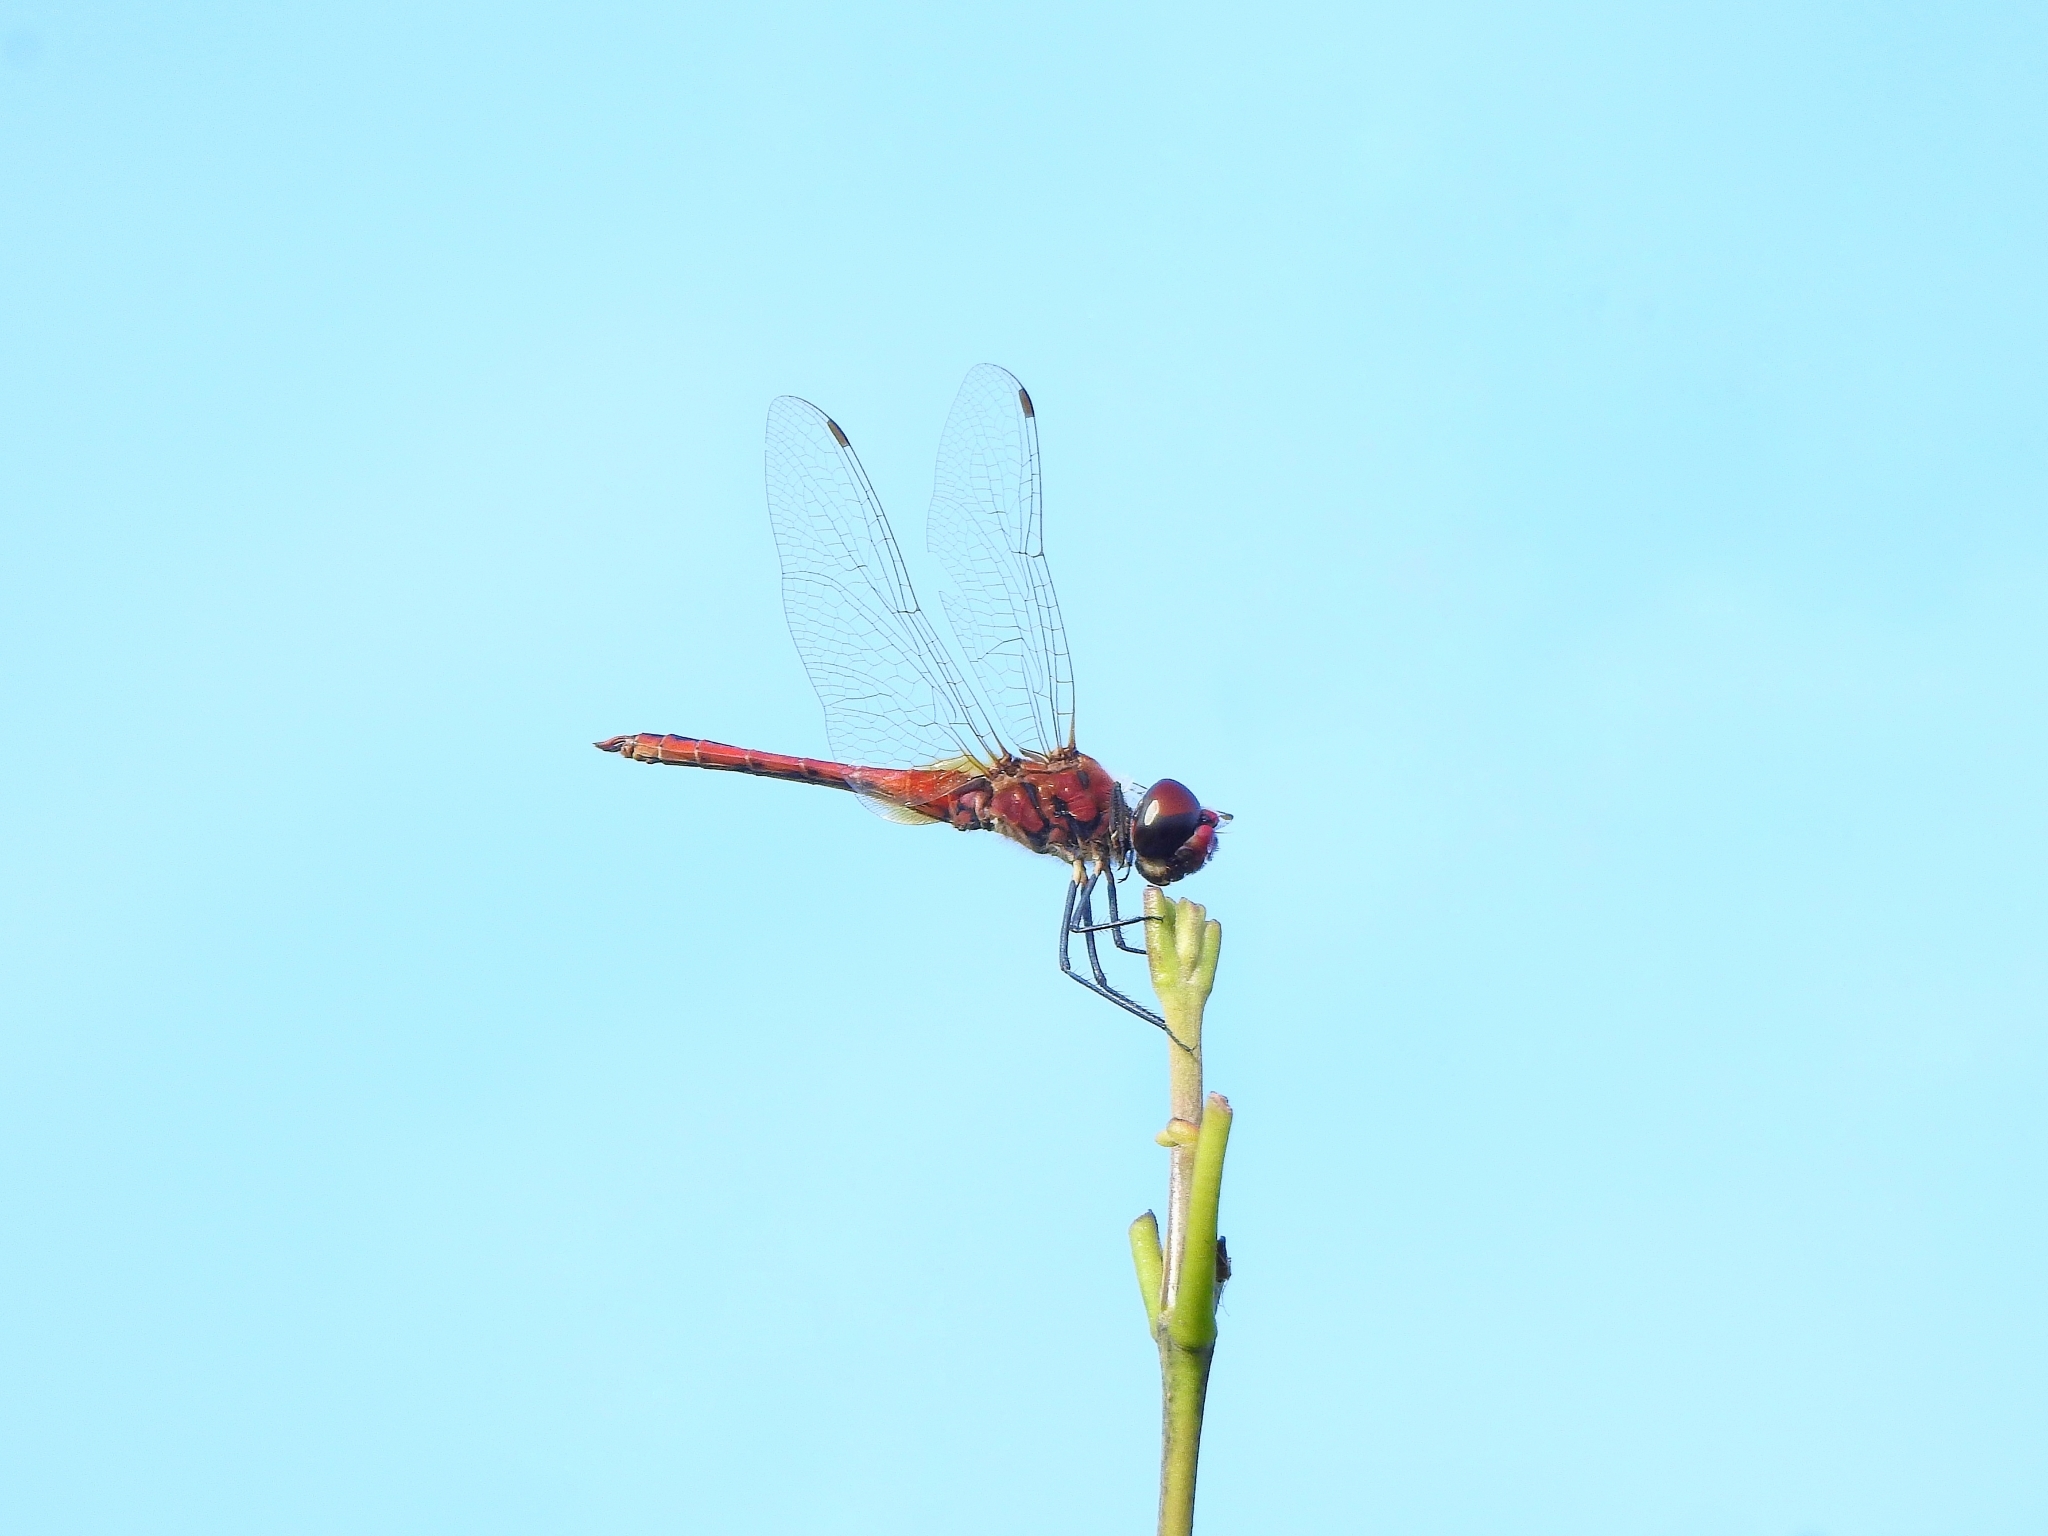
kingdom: Animalia
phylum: Arthropoda
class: Insecta
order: Odonata
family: Libellulidae
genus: Macrodiplax
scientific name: Macrodiplax cora
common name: Coastal glider
